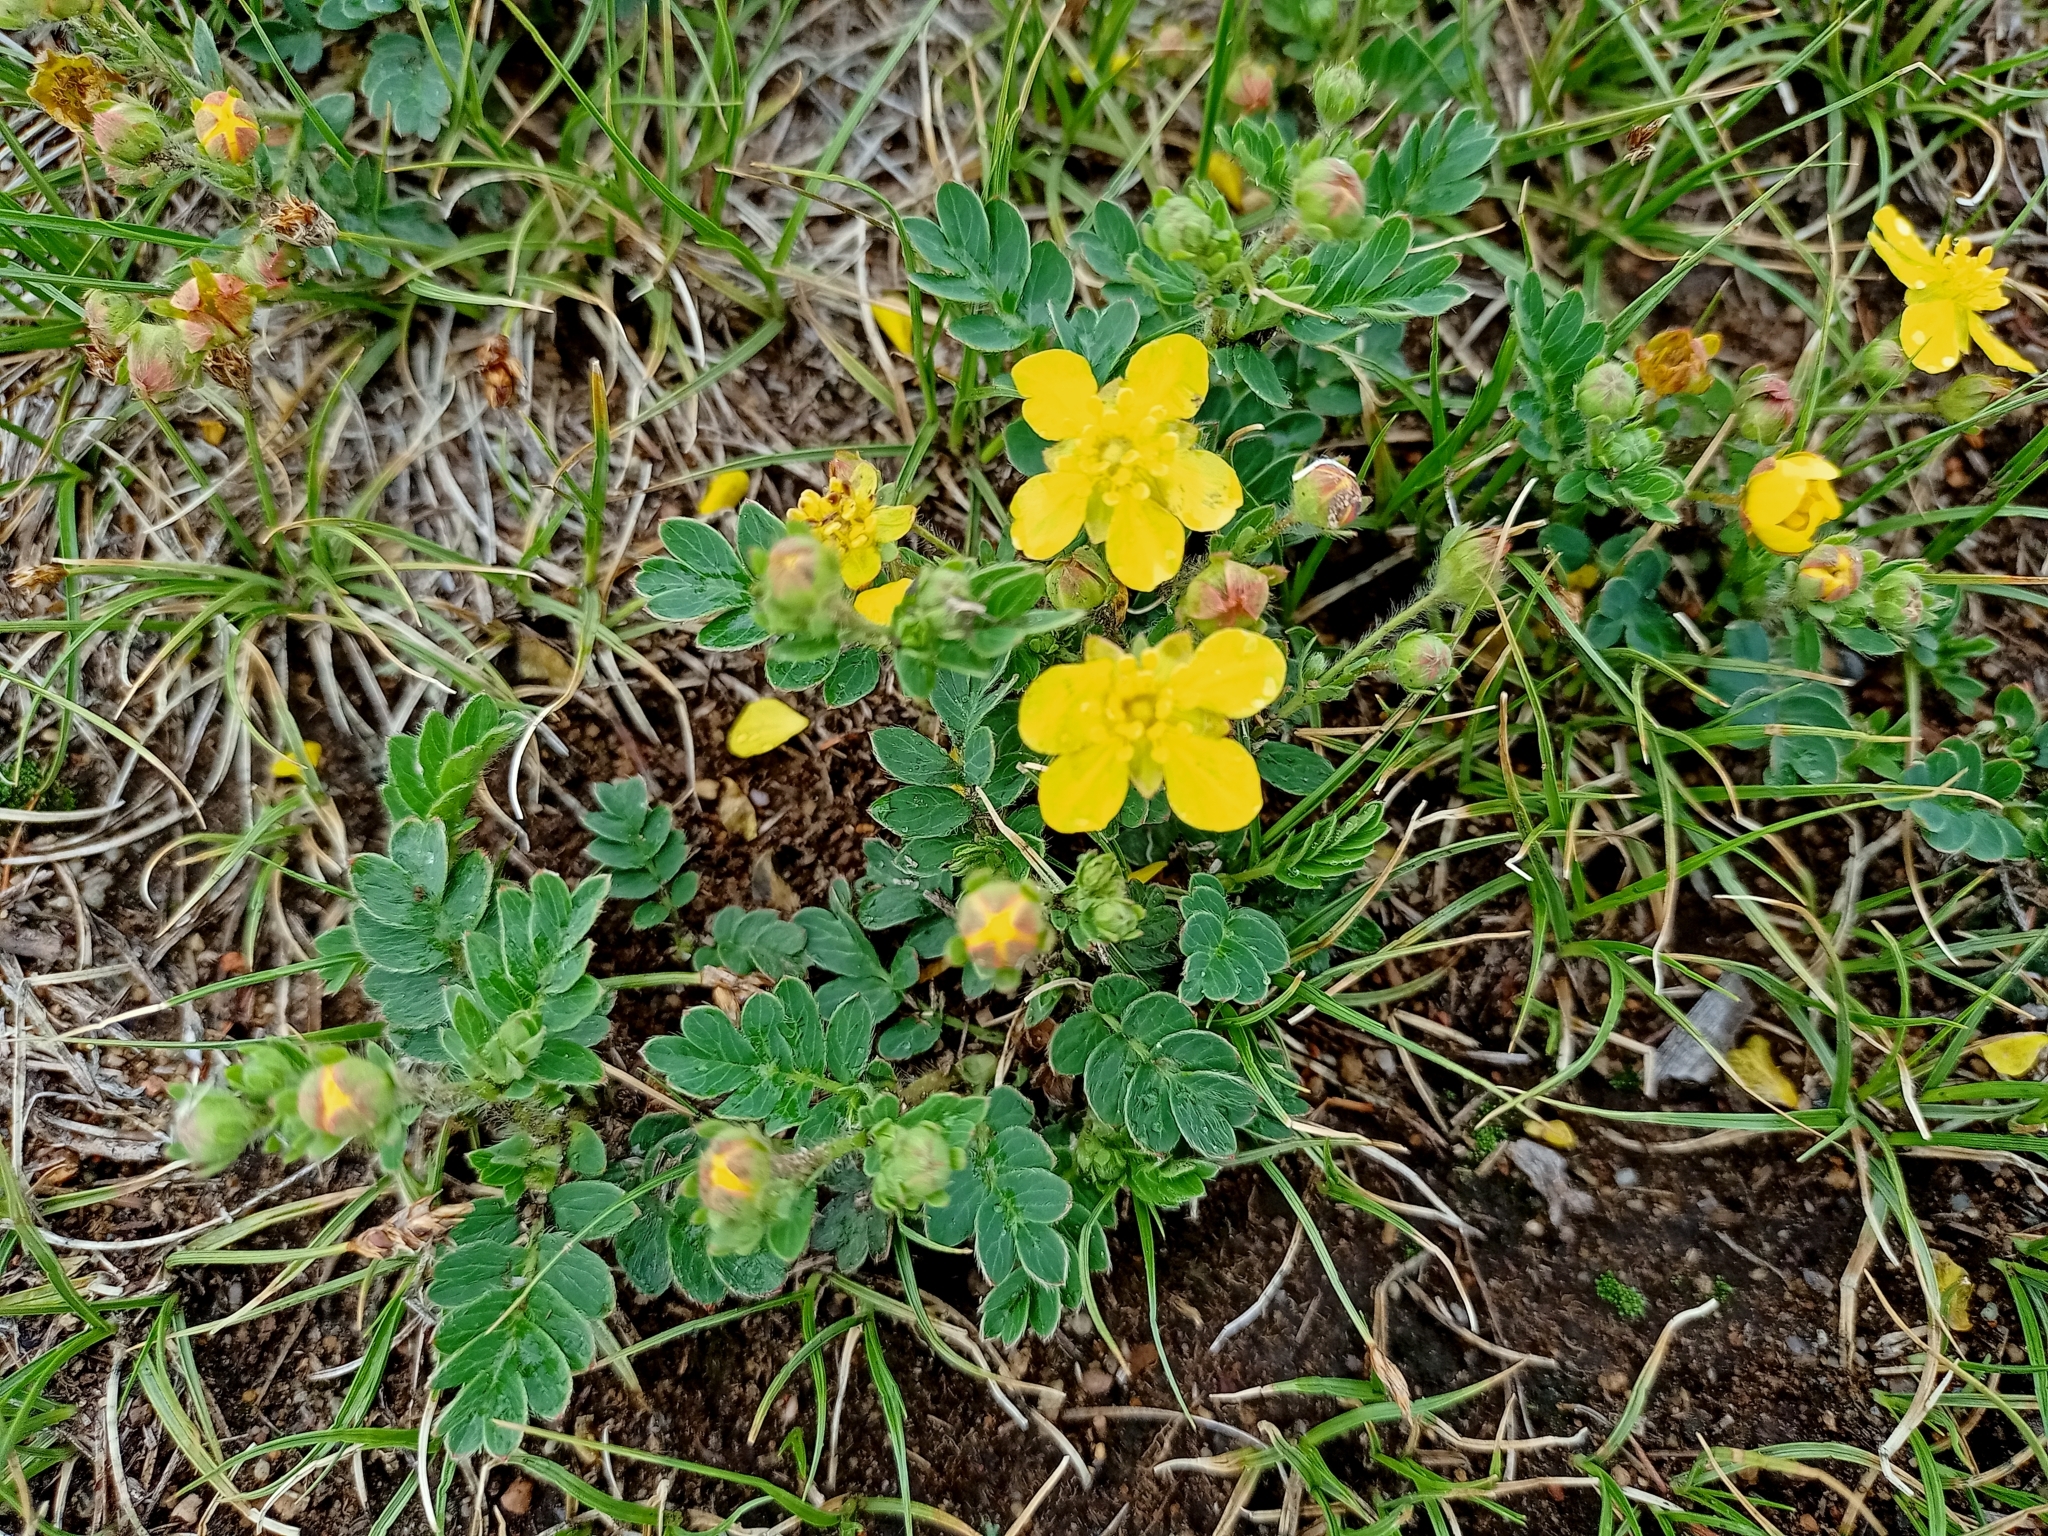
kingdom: Plantae
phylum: Tracheophyta
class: Magnoliopsida
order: Rosales
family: Rosaceae
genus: Sibbaldianthe
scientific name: Sibbaldianthe bifurca
